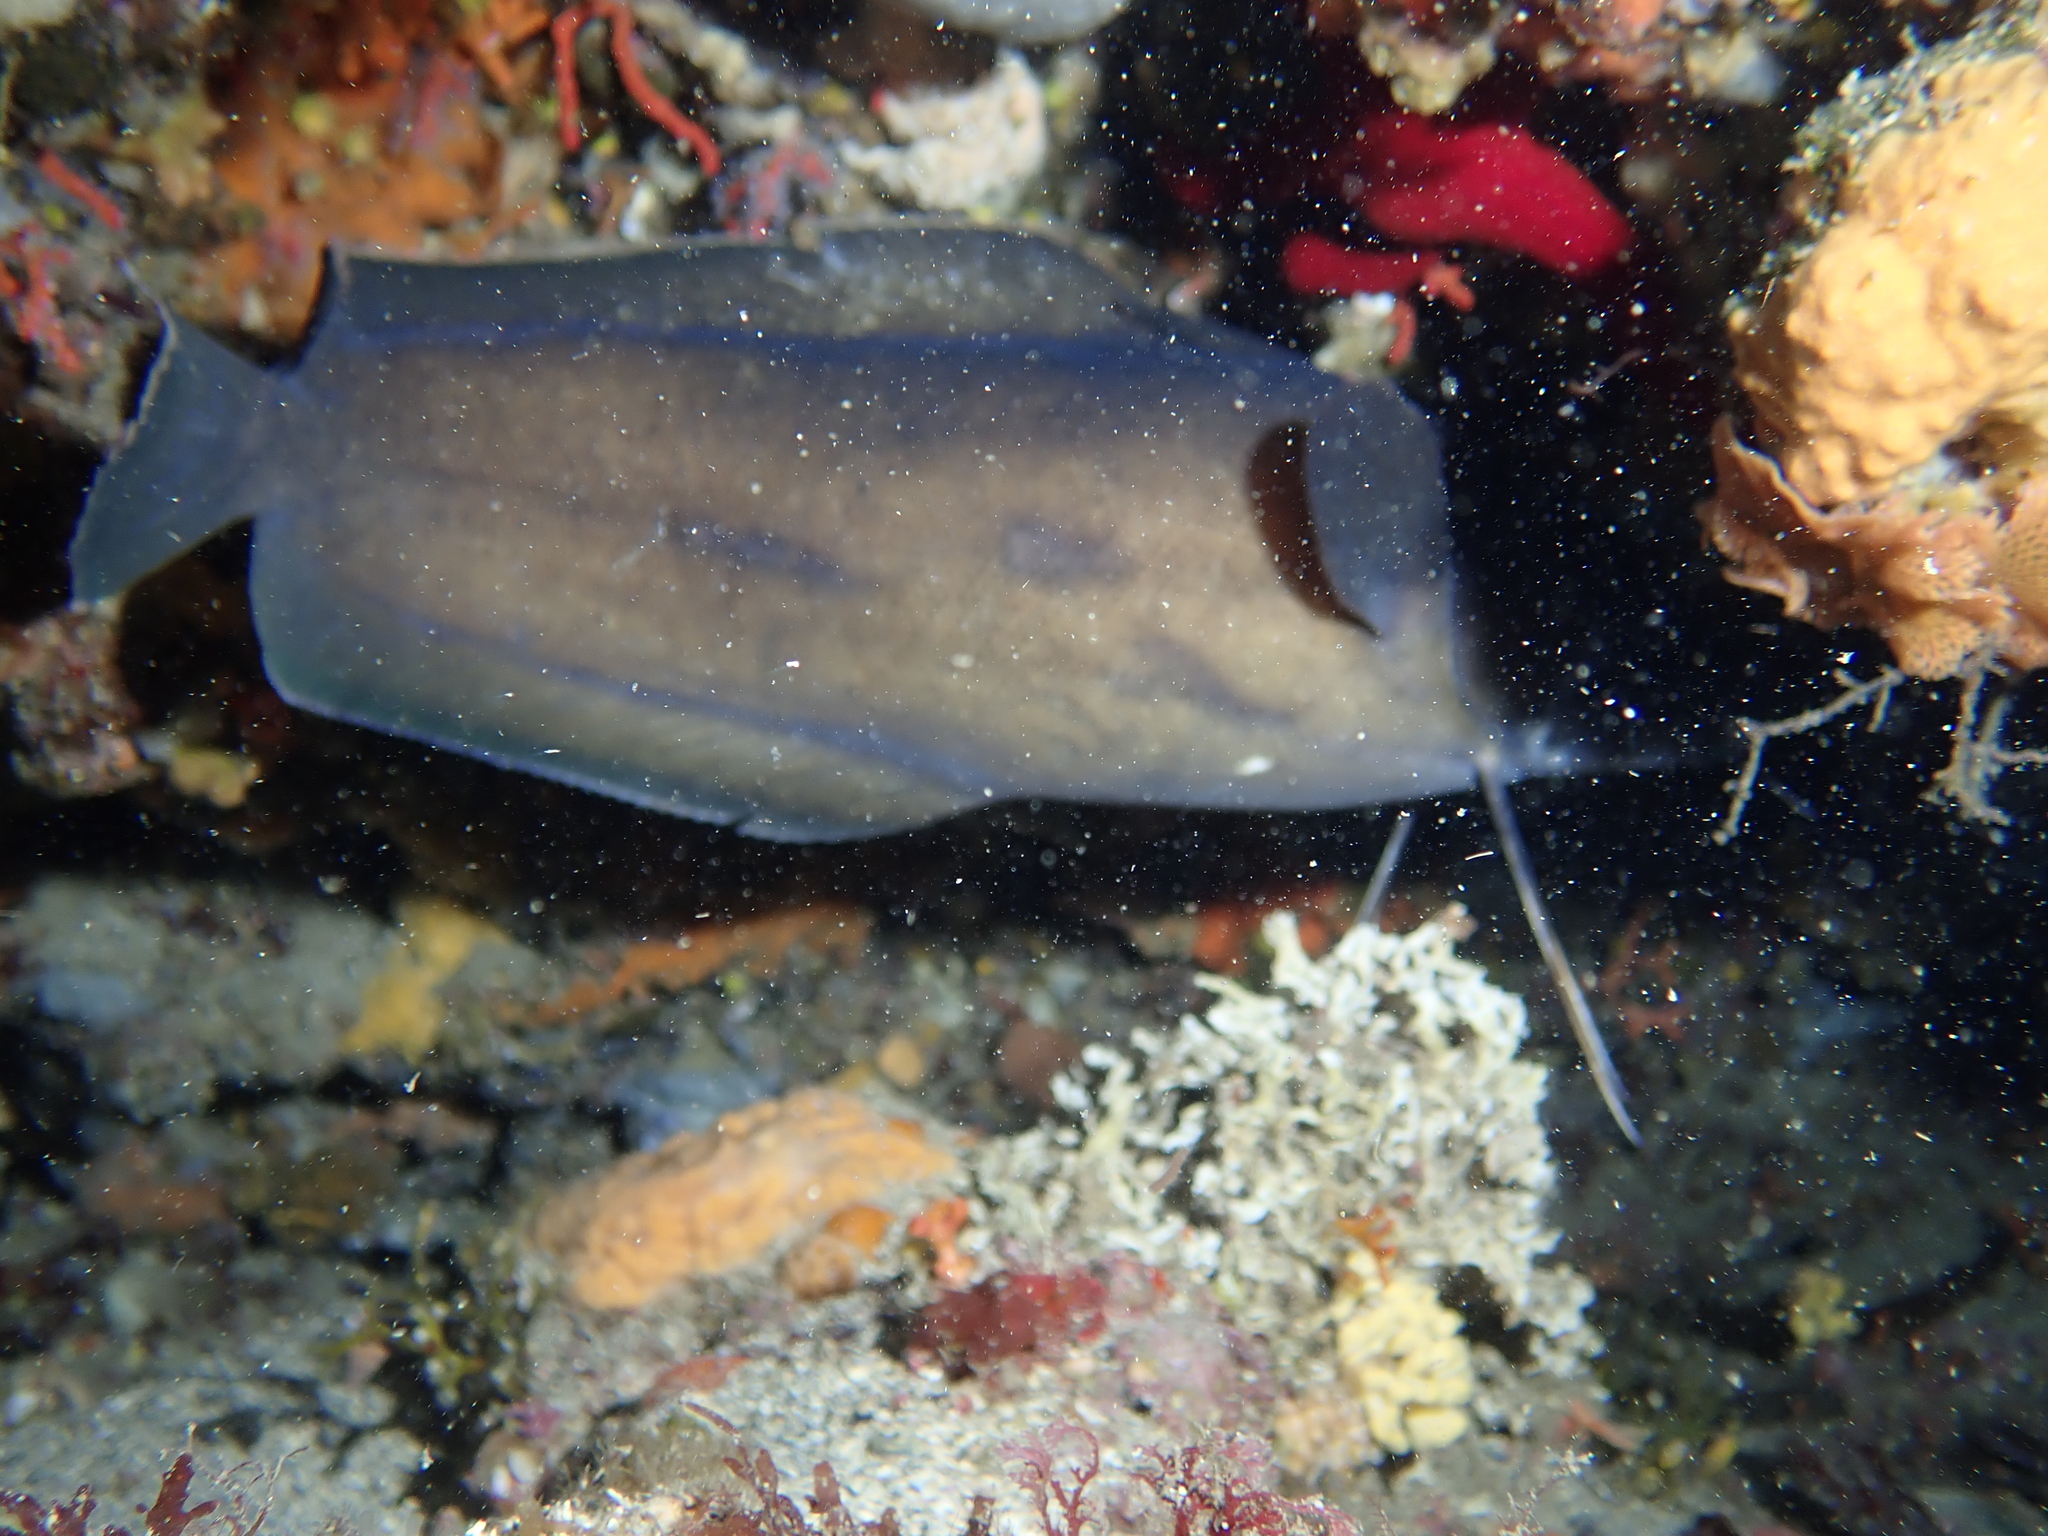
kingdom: Animalia
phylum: Chordata
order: Gadiformes
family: Phycidae
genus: Phycis
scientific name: Phycis phycis
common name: Forkbeard
